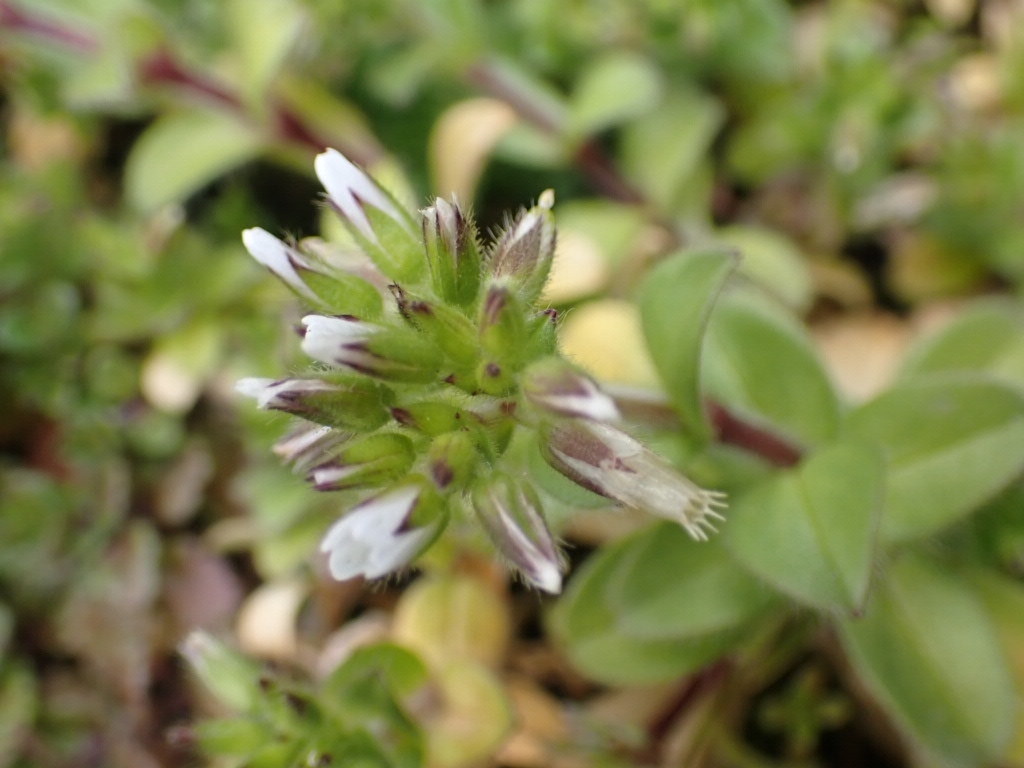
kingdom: Plantae
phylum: Tracheophyta
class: Magnoliopsida
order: Caryophyllales
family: Caryophyllaceae
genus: Cerastium
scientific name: Cerastium glomeratum
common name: Sticky chickweed
